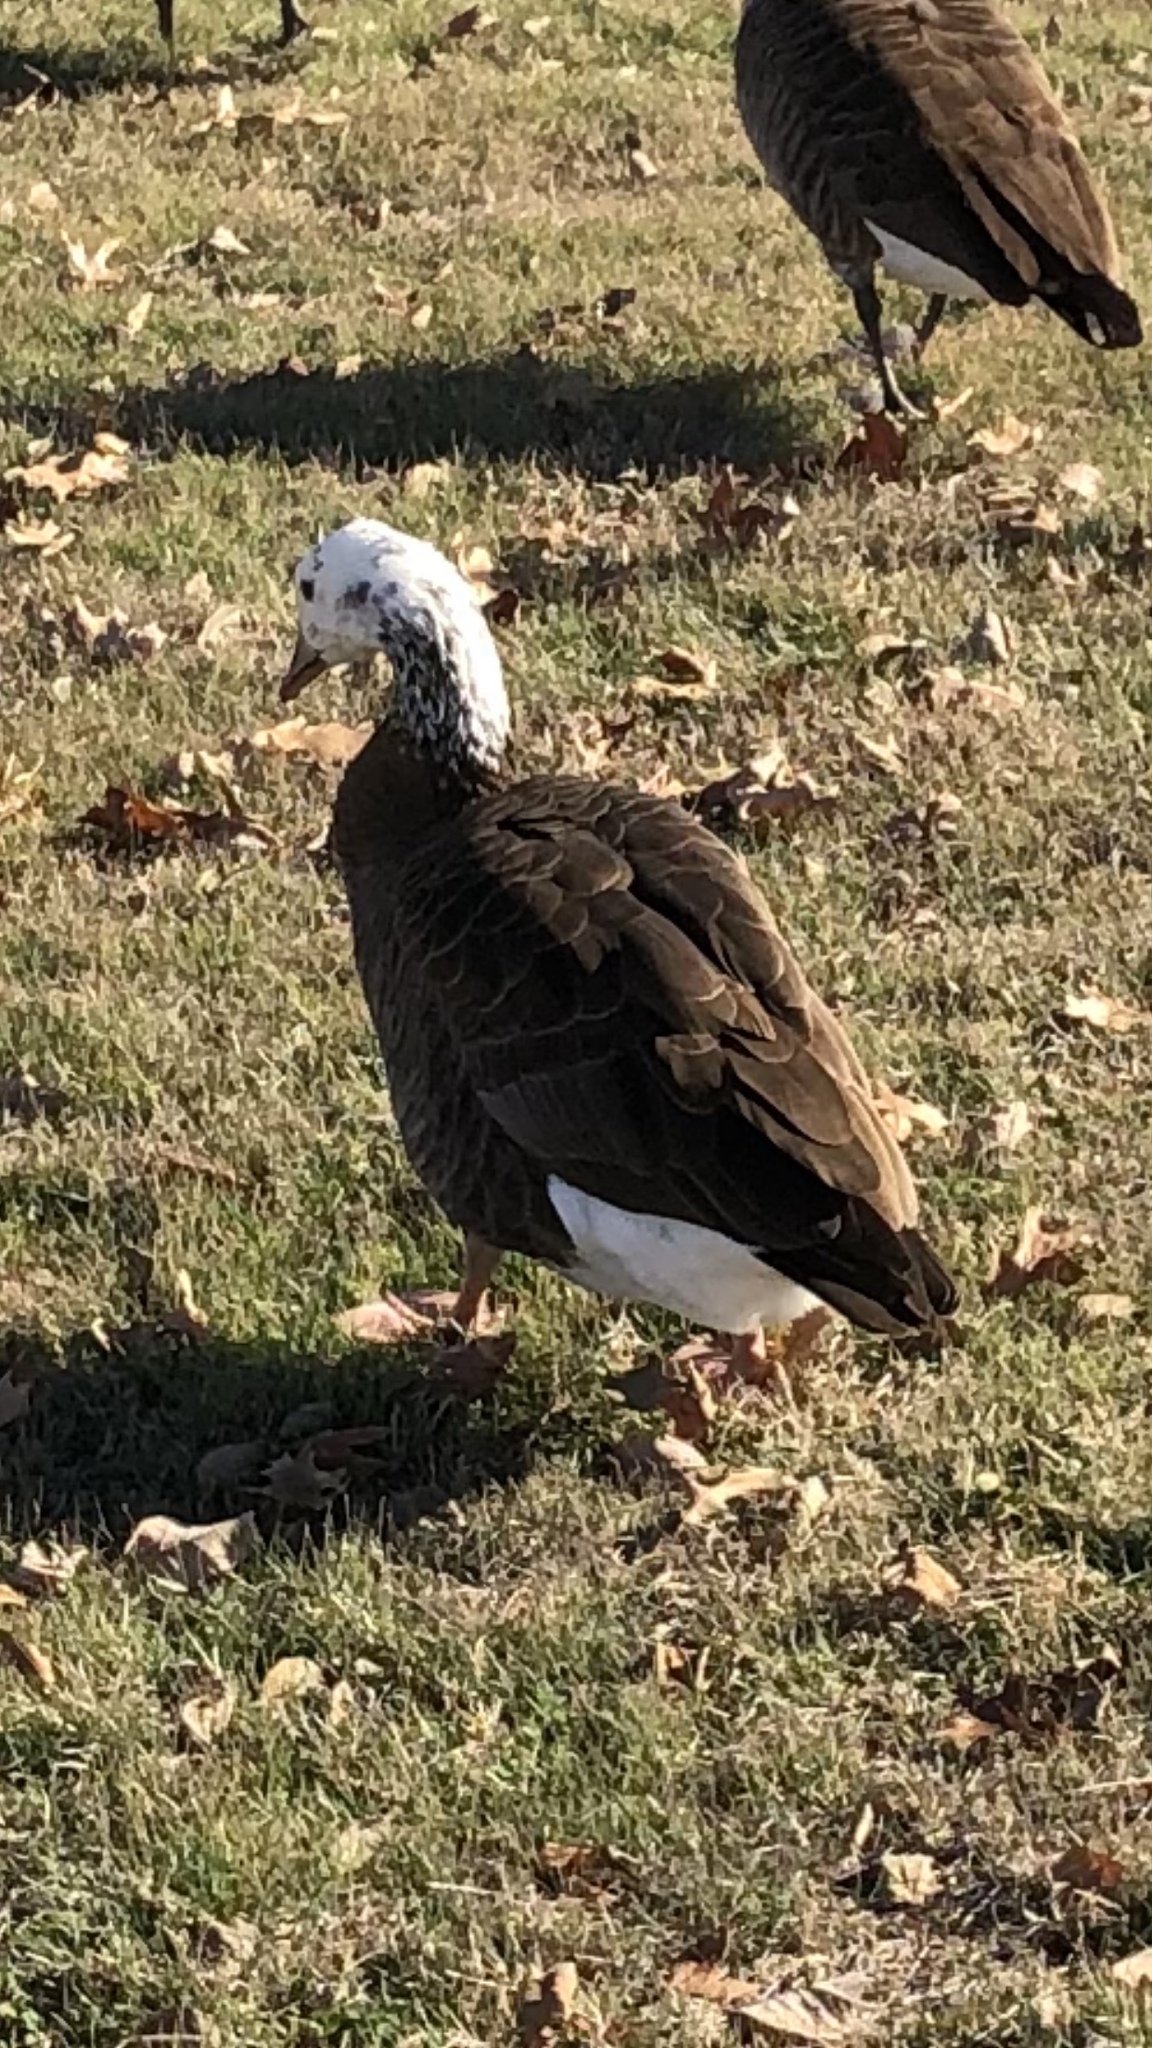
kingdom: Animalia
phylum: Chordata
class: Aves
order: Anseriformes
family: Anatidae
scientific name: Anatidae
